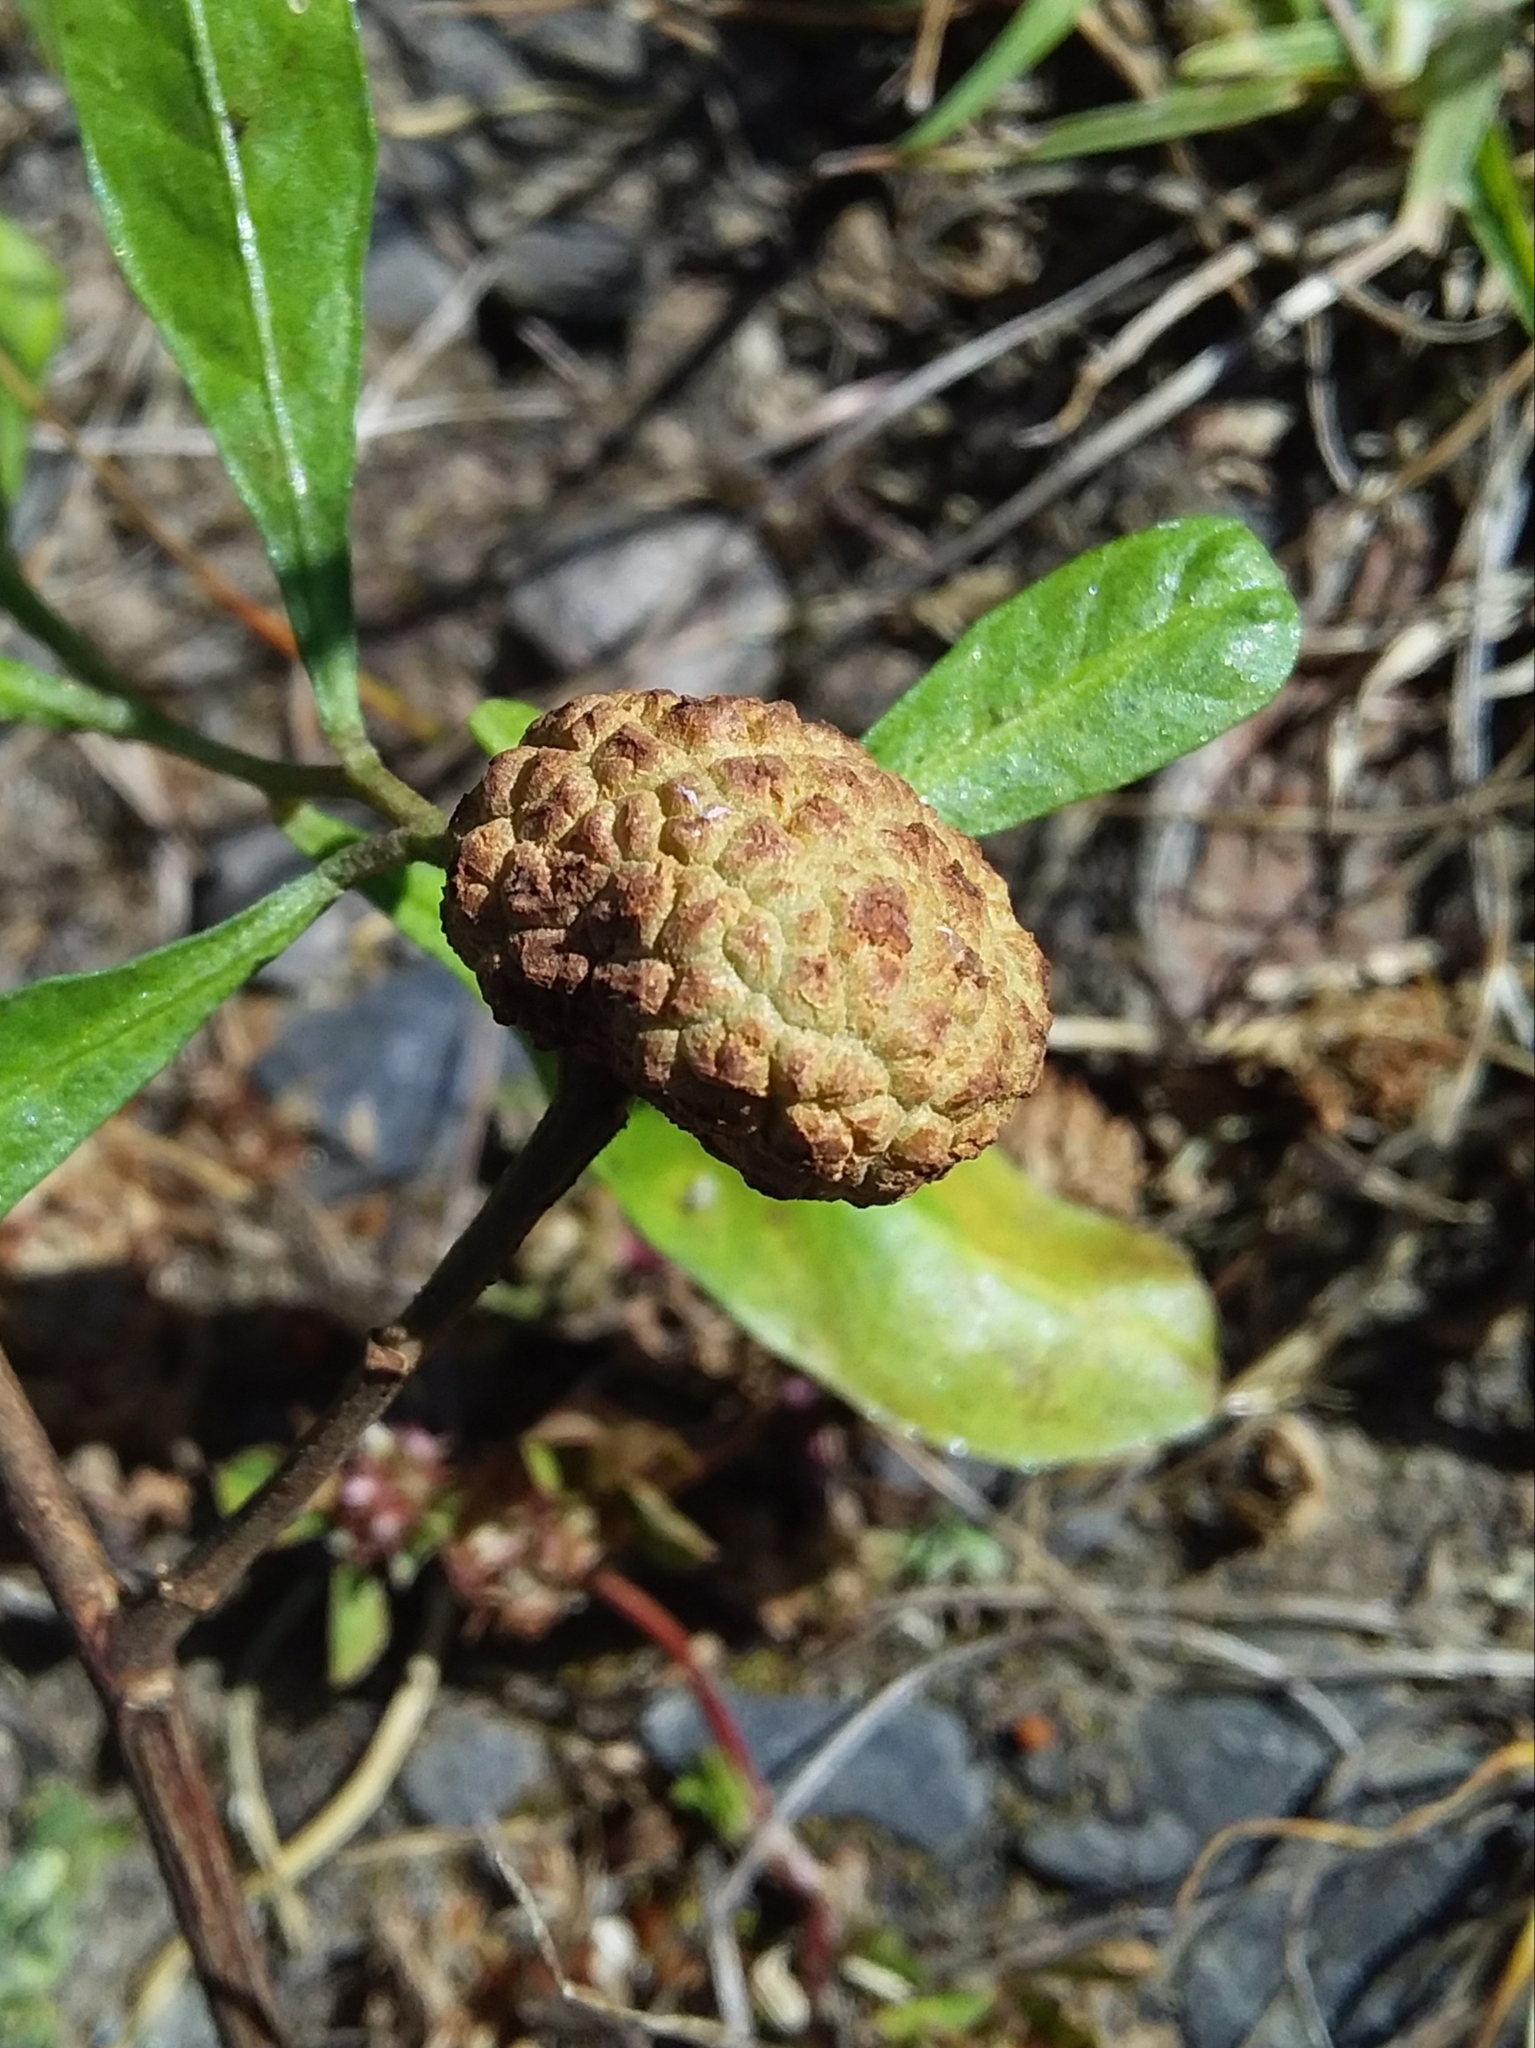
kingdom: Animalia
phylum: Arthropoda
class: Insecta
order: Diptera
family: Cecidomyiidae
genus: Asphondylia
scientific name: Asphondylia dodonaeae
